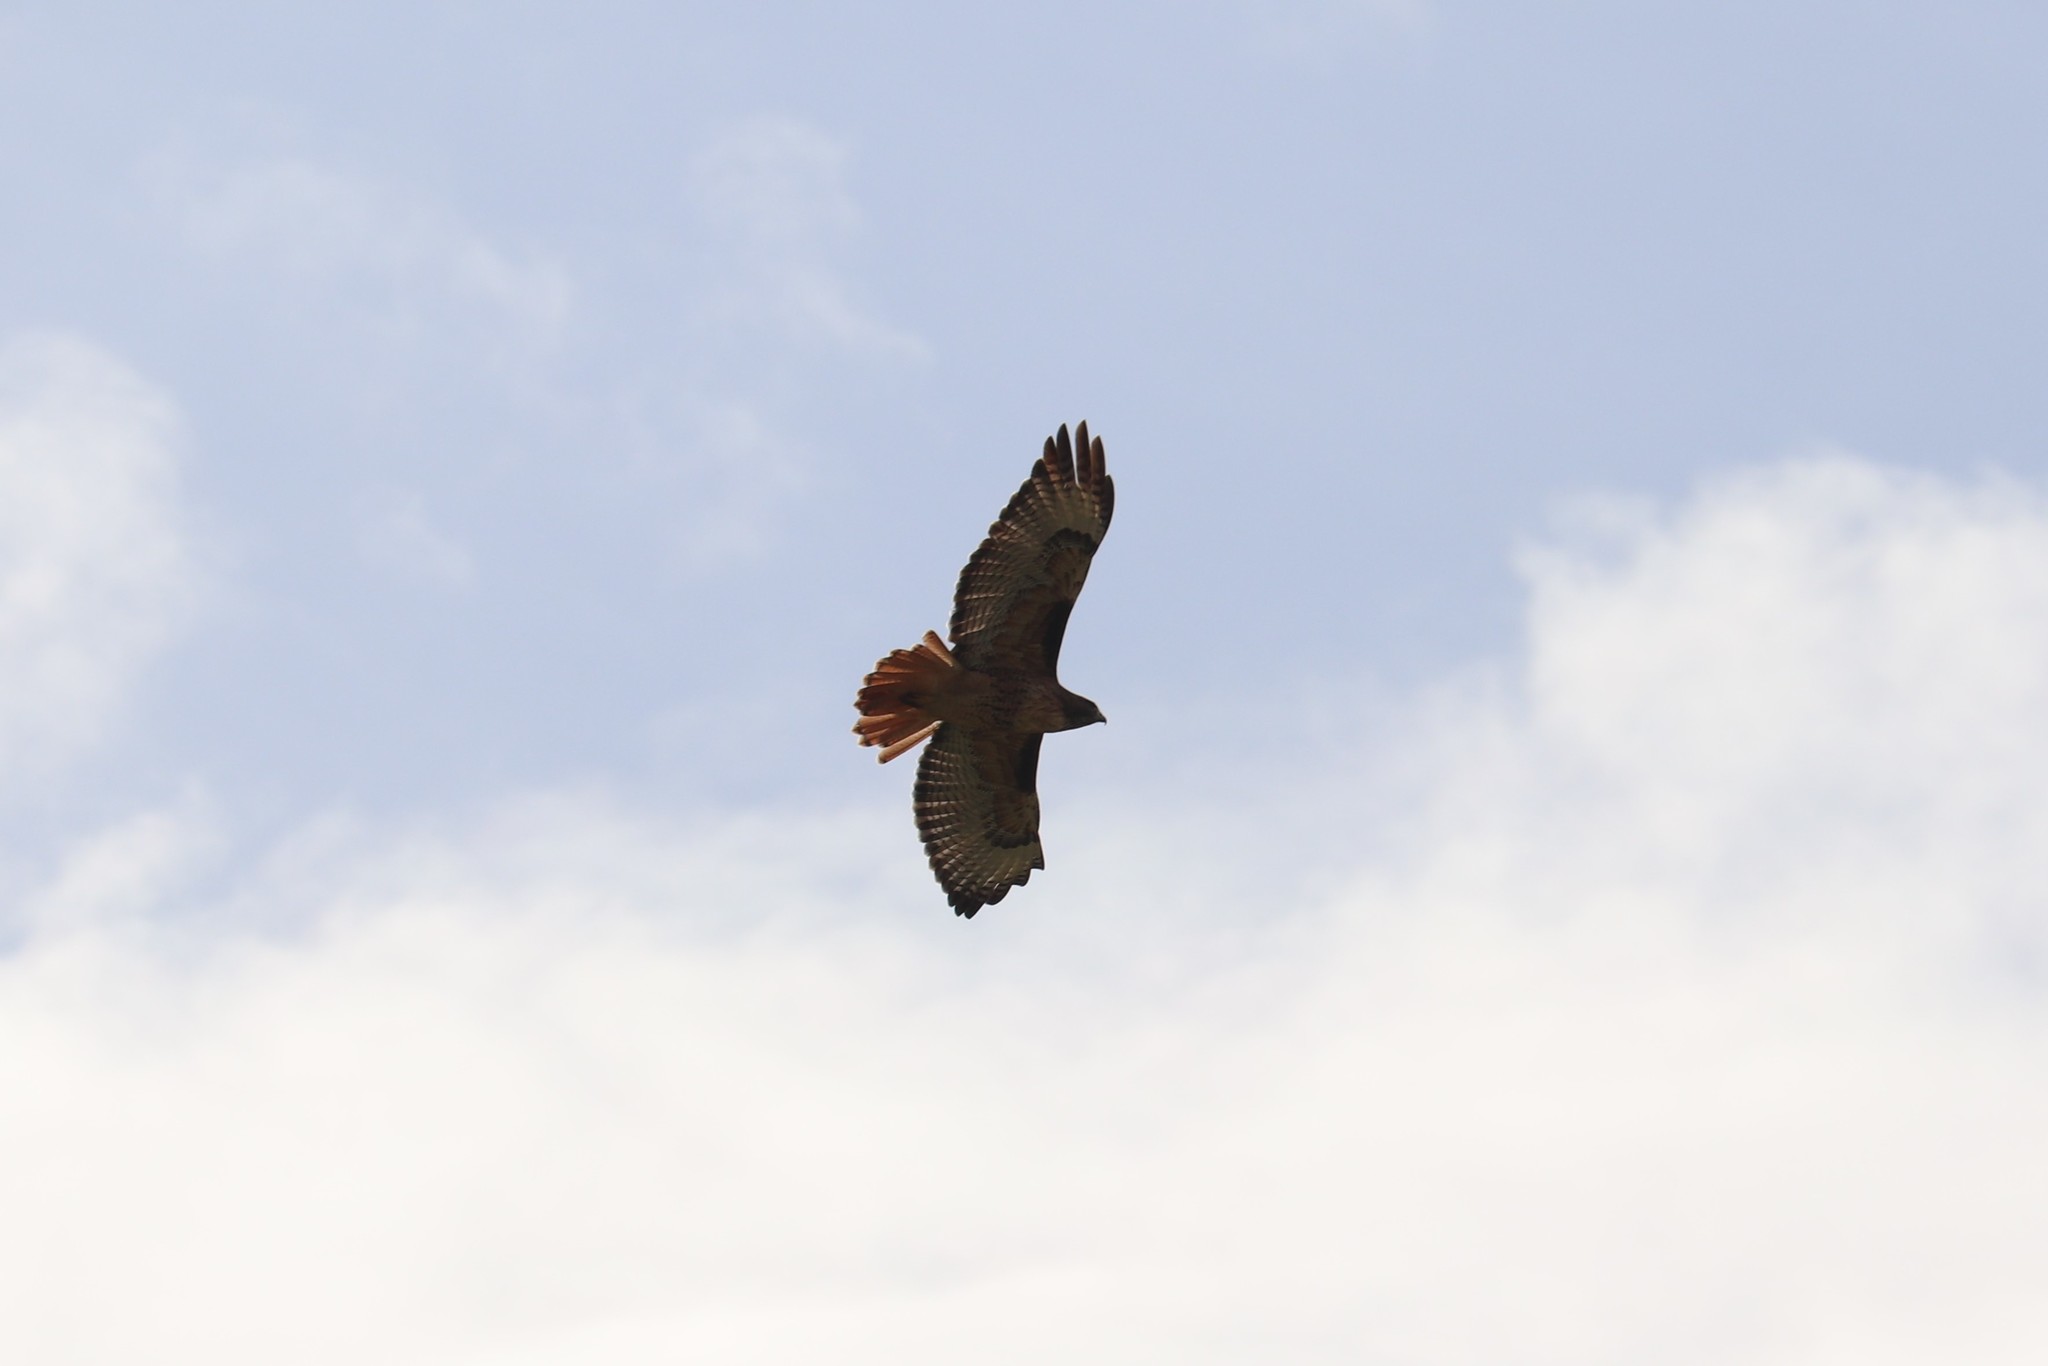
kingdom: Animalia
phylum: Chordata
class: Aves
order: Accipitriformes
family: Accipitridae
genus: Buteo
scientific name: Buteo jamaicensis
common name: Red-tailed hawk
